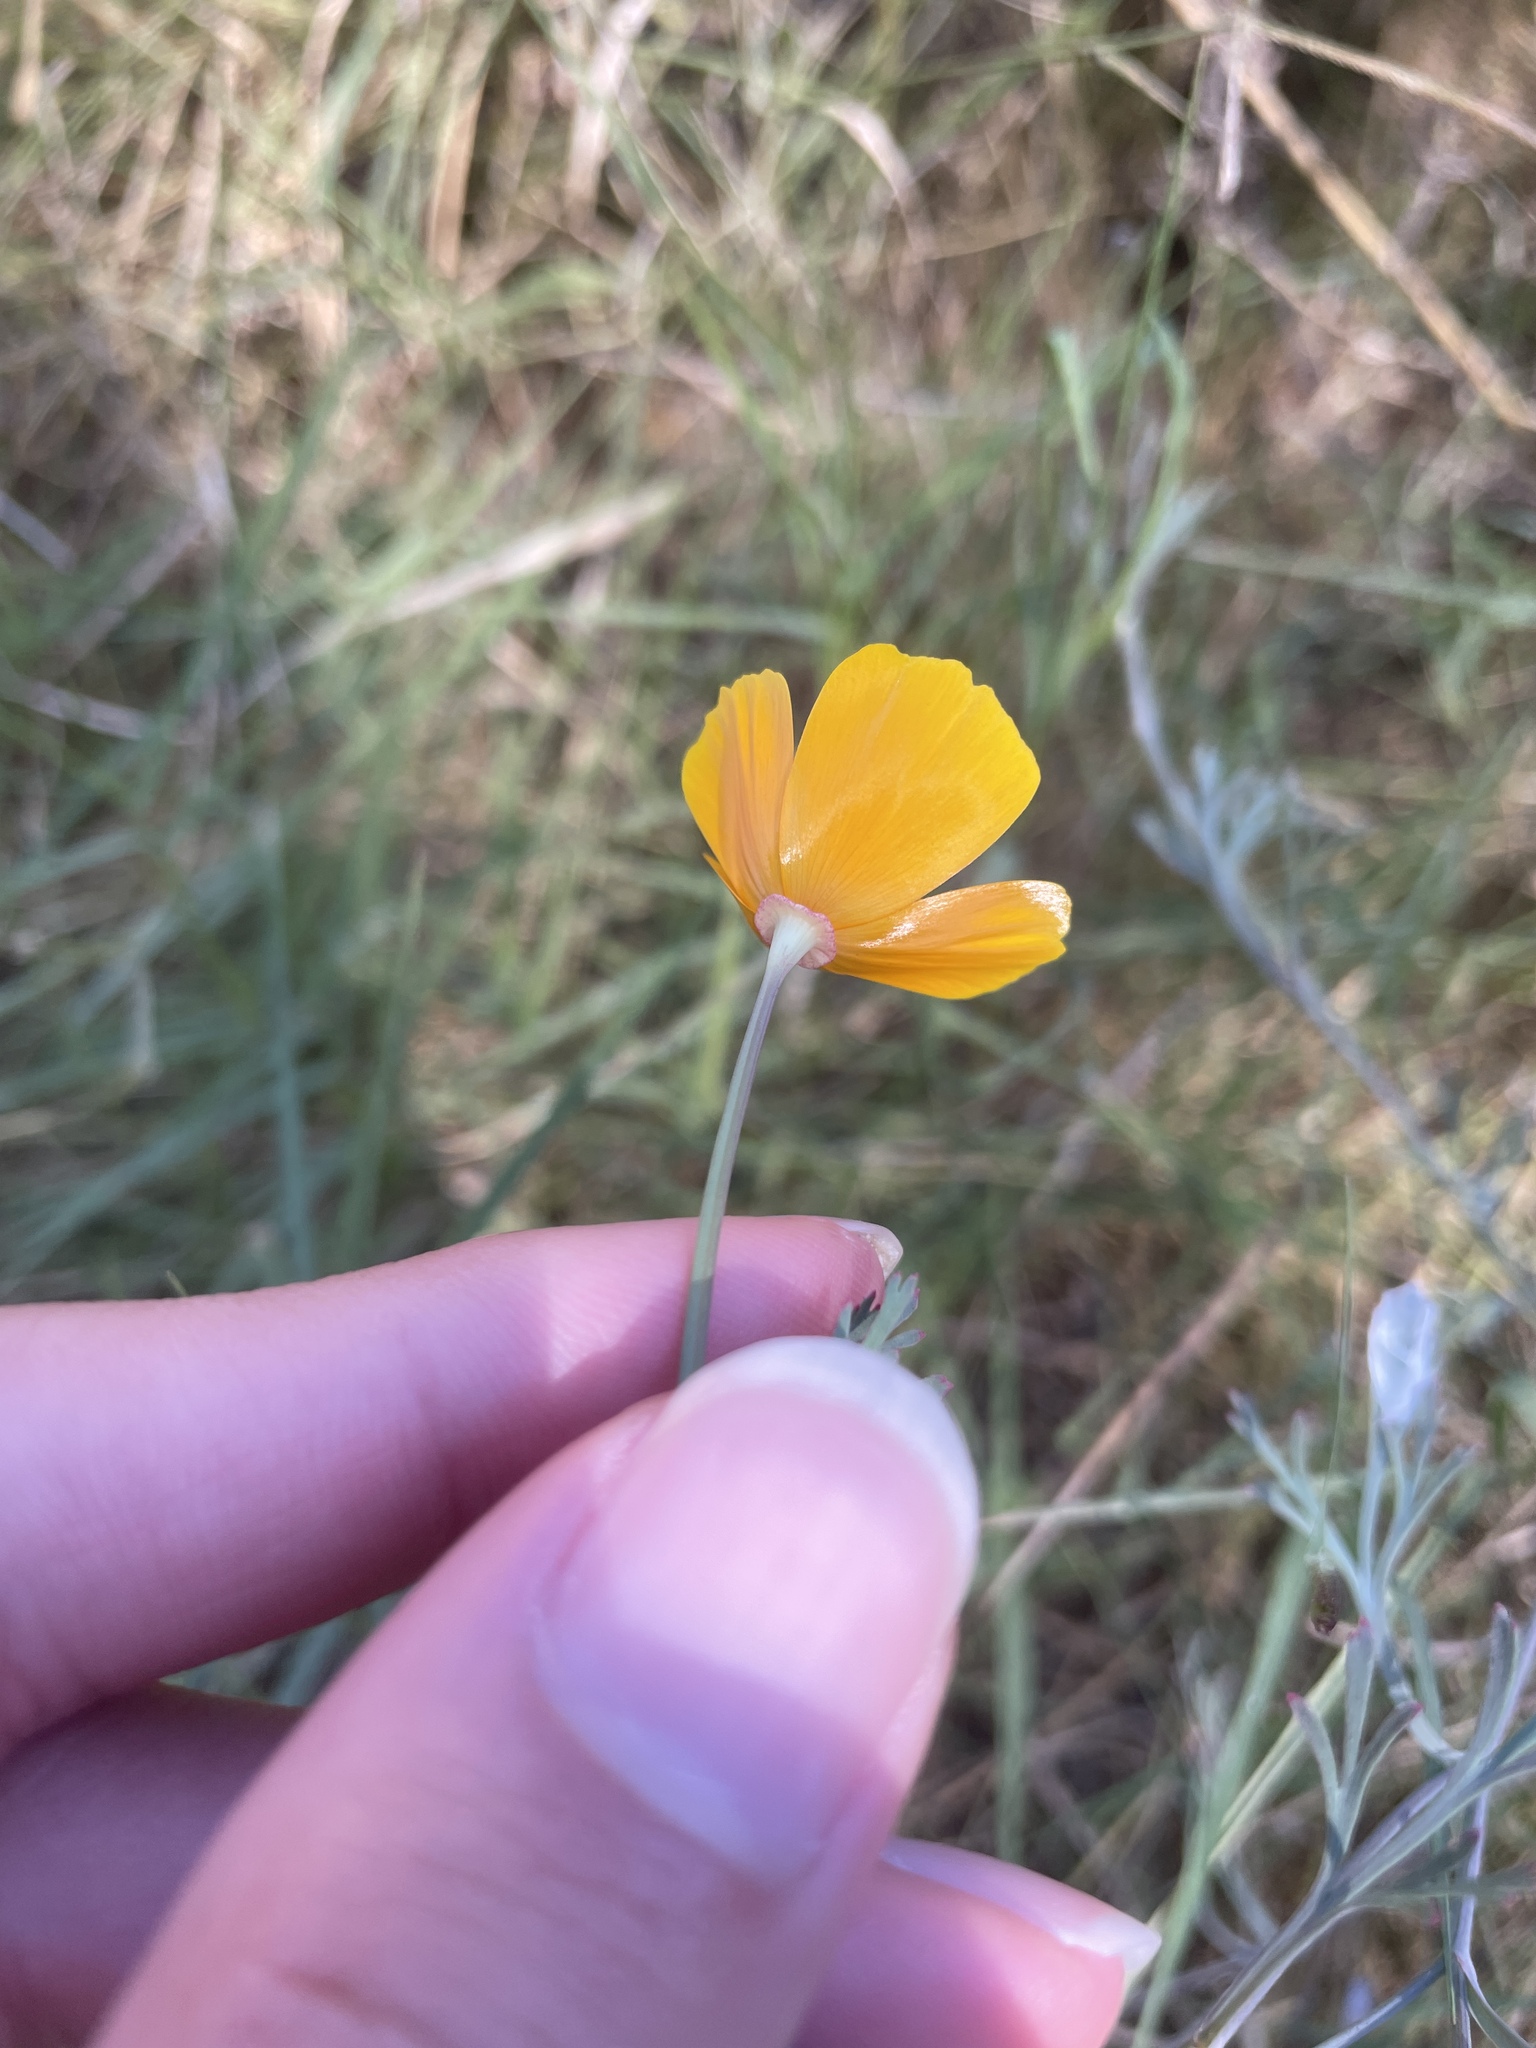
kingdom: Plantae
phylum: Tracheophyta
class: Magnoliopsida
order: Ranunculales
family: Papaveraceae
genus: Eschscholzia
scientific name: Eschscholzia californica
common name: California poppy
